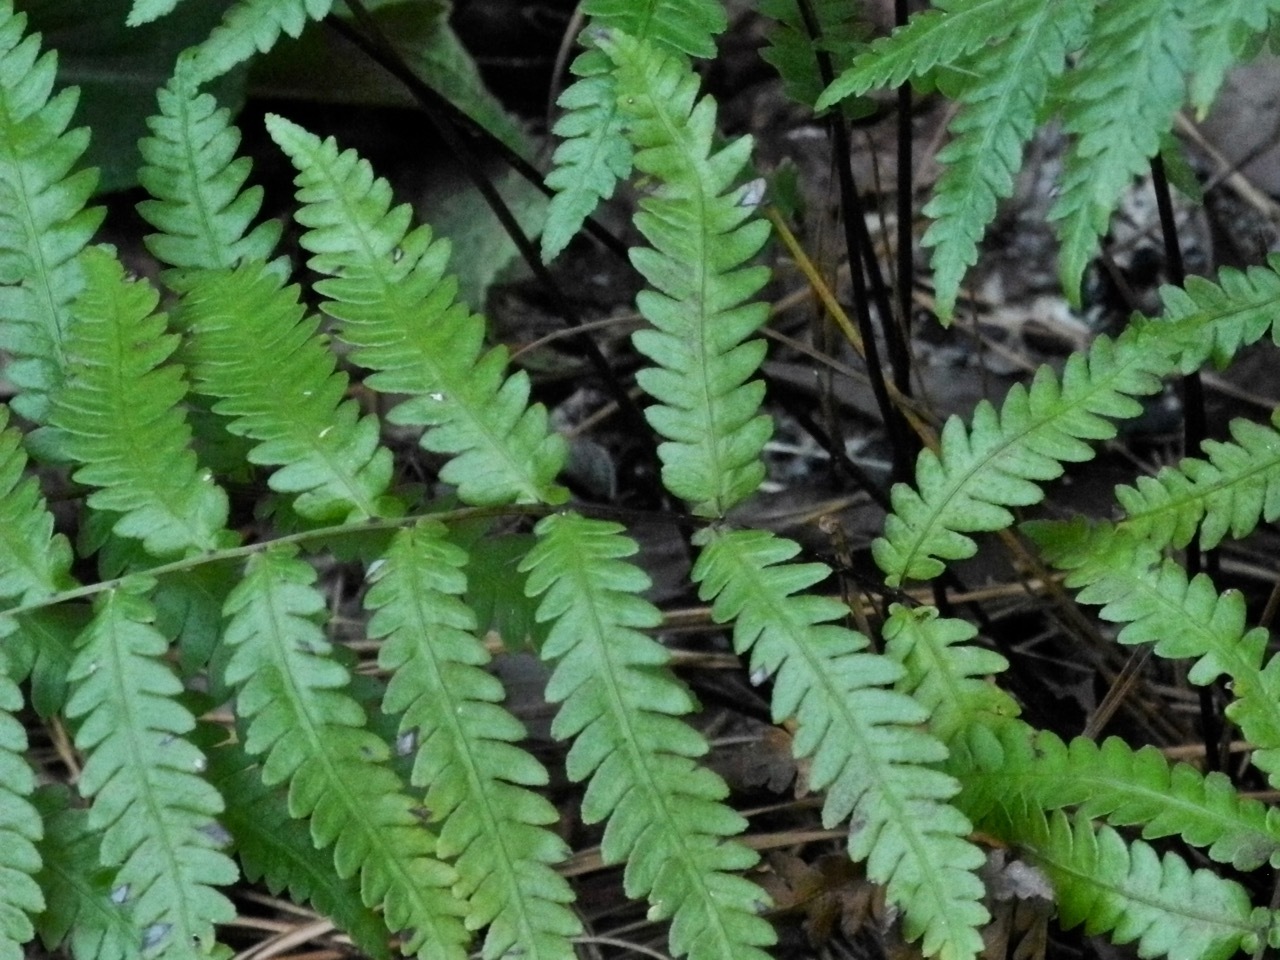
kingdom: Plantae
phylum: Tracheophyta
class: Polypodiopsida
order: Polypodiales
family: Blechnaceae
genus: Anchistea
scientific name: Anchistea virginica
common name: Virginia chain fern
